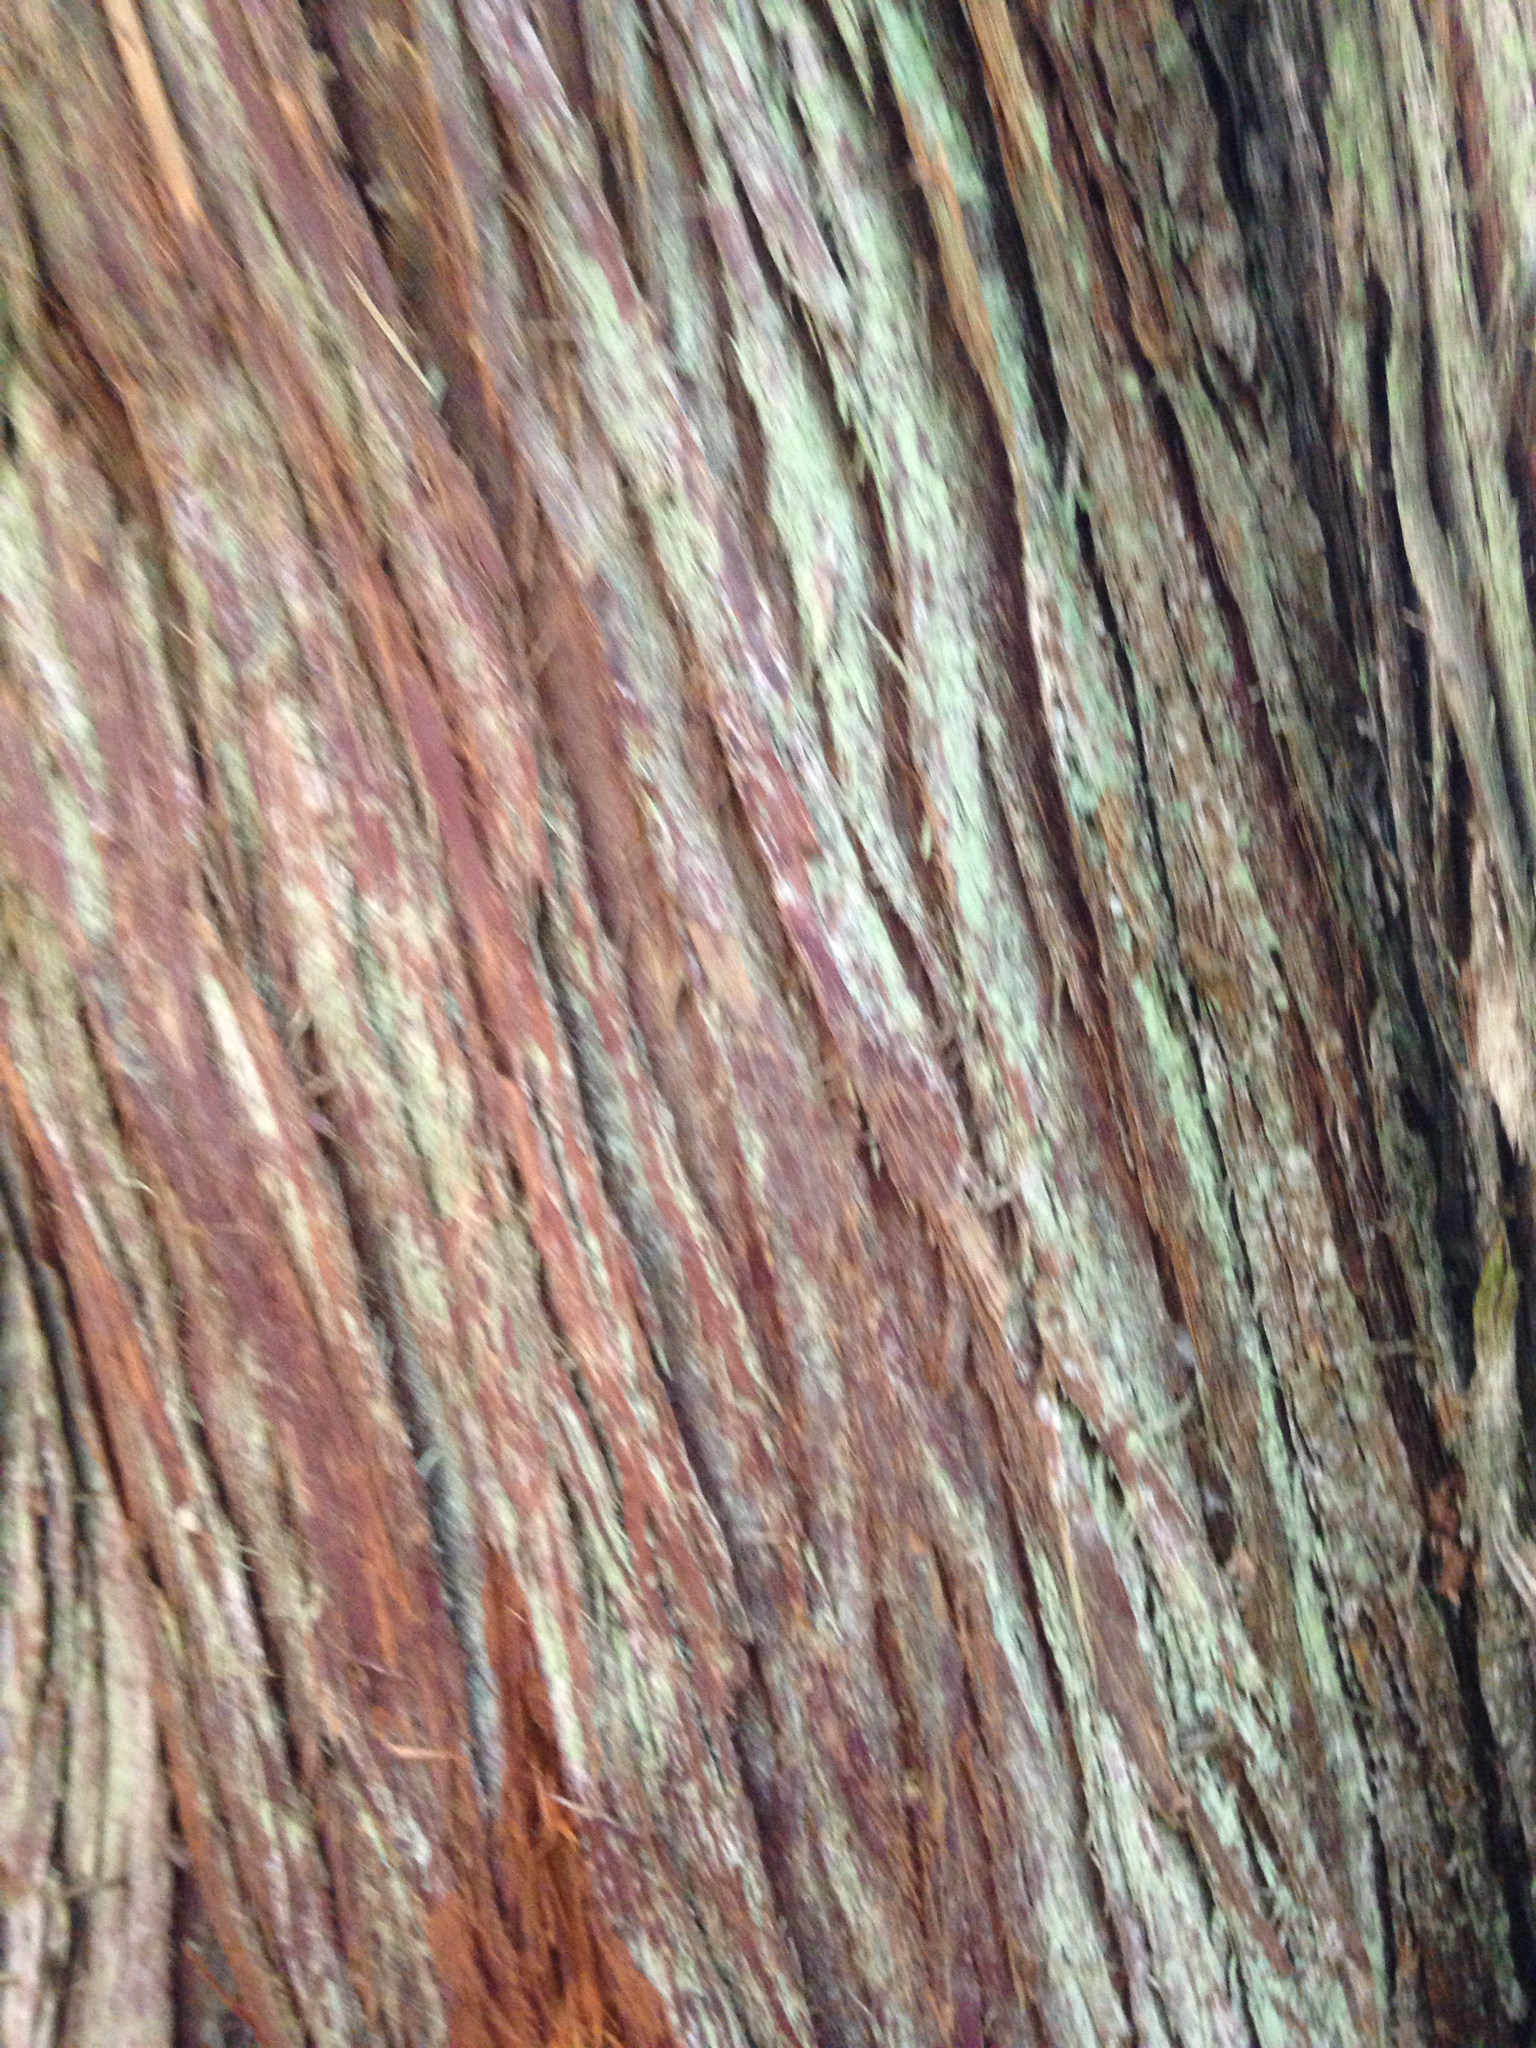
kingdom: Plantae
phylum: Tracheophyta
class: Pinopsida
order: Pinales
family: Cupressaceae
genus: Thuja
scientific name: Thuja plicata
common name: Western red-cedar
